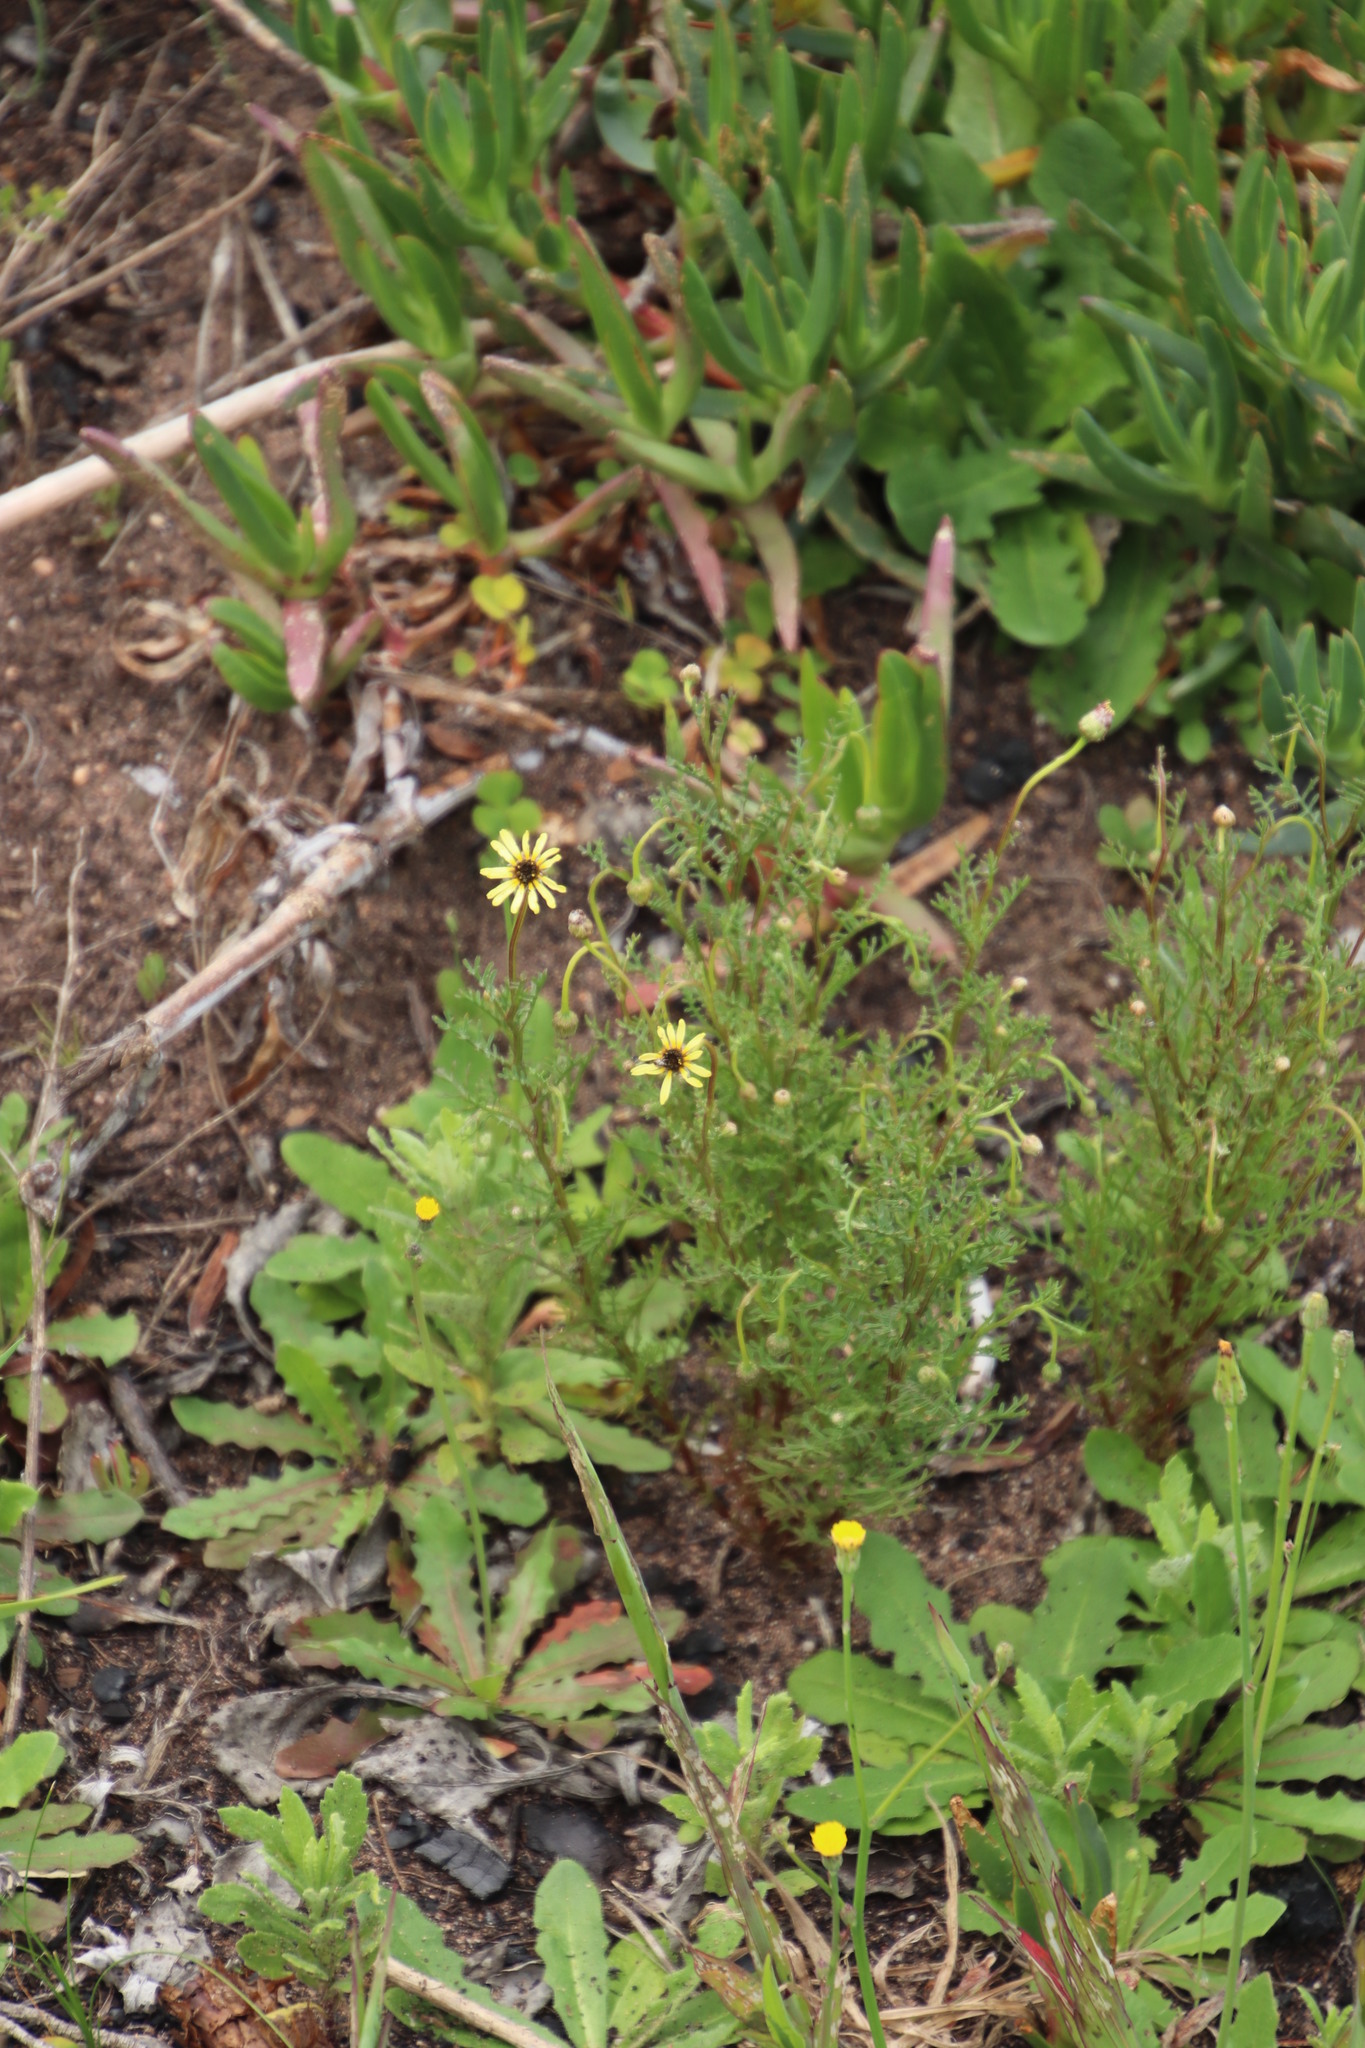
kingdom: Plantae
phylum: Tracheophyta
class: Magnoliopsida
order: Asterales
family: Asteraceae
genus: Ursinia
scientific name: Ursinia anthemoides
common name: Ursinia
